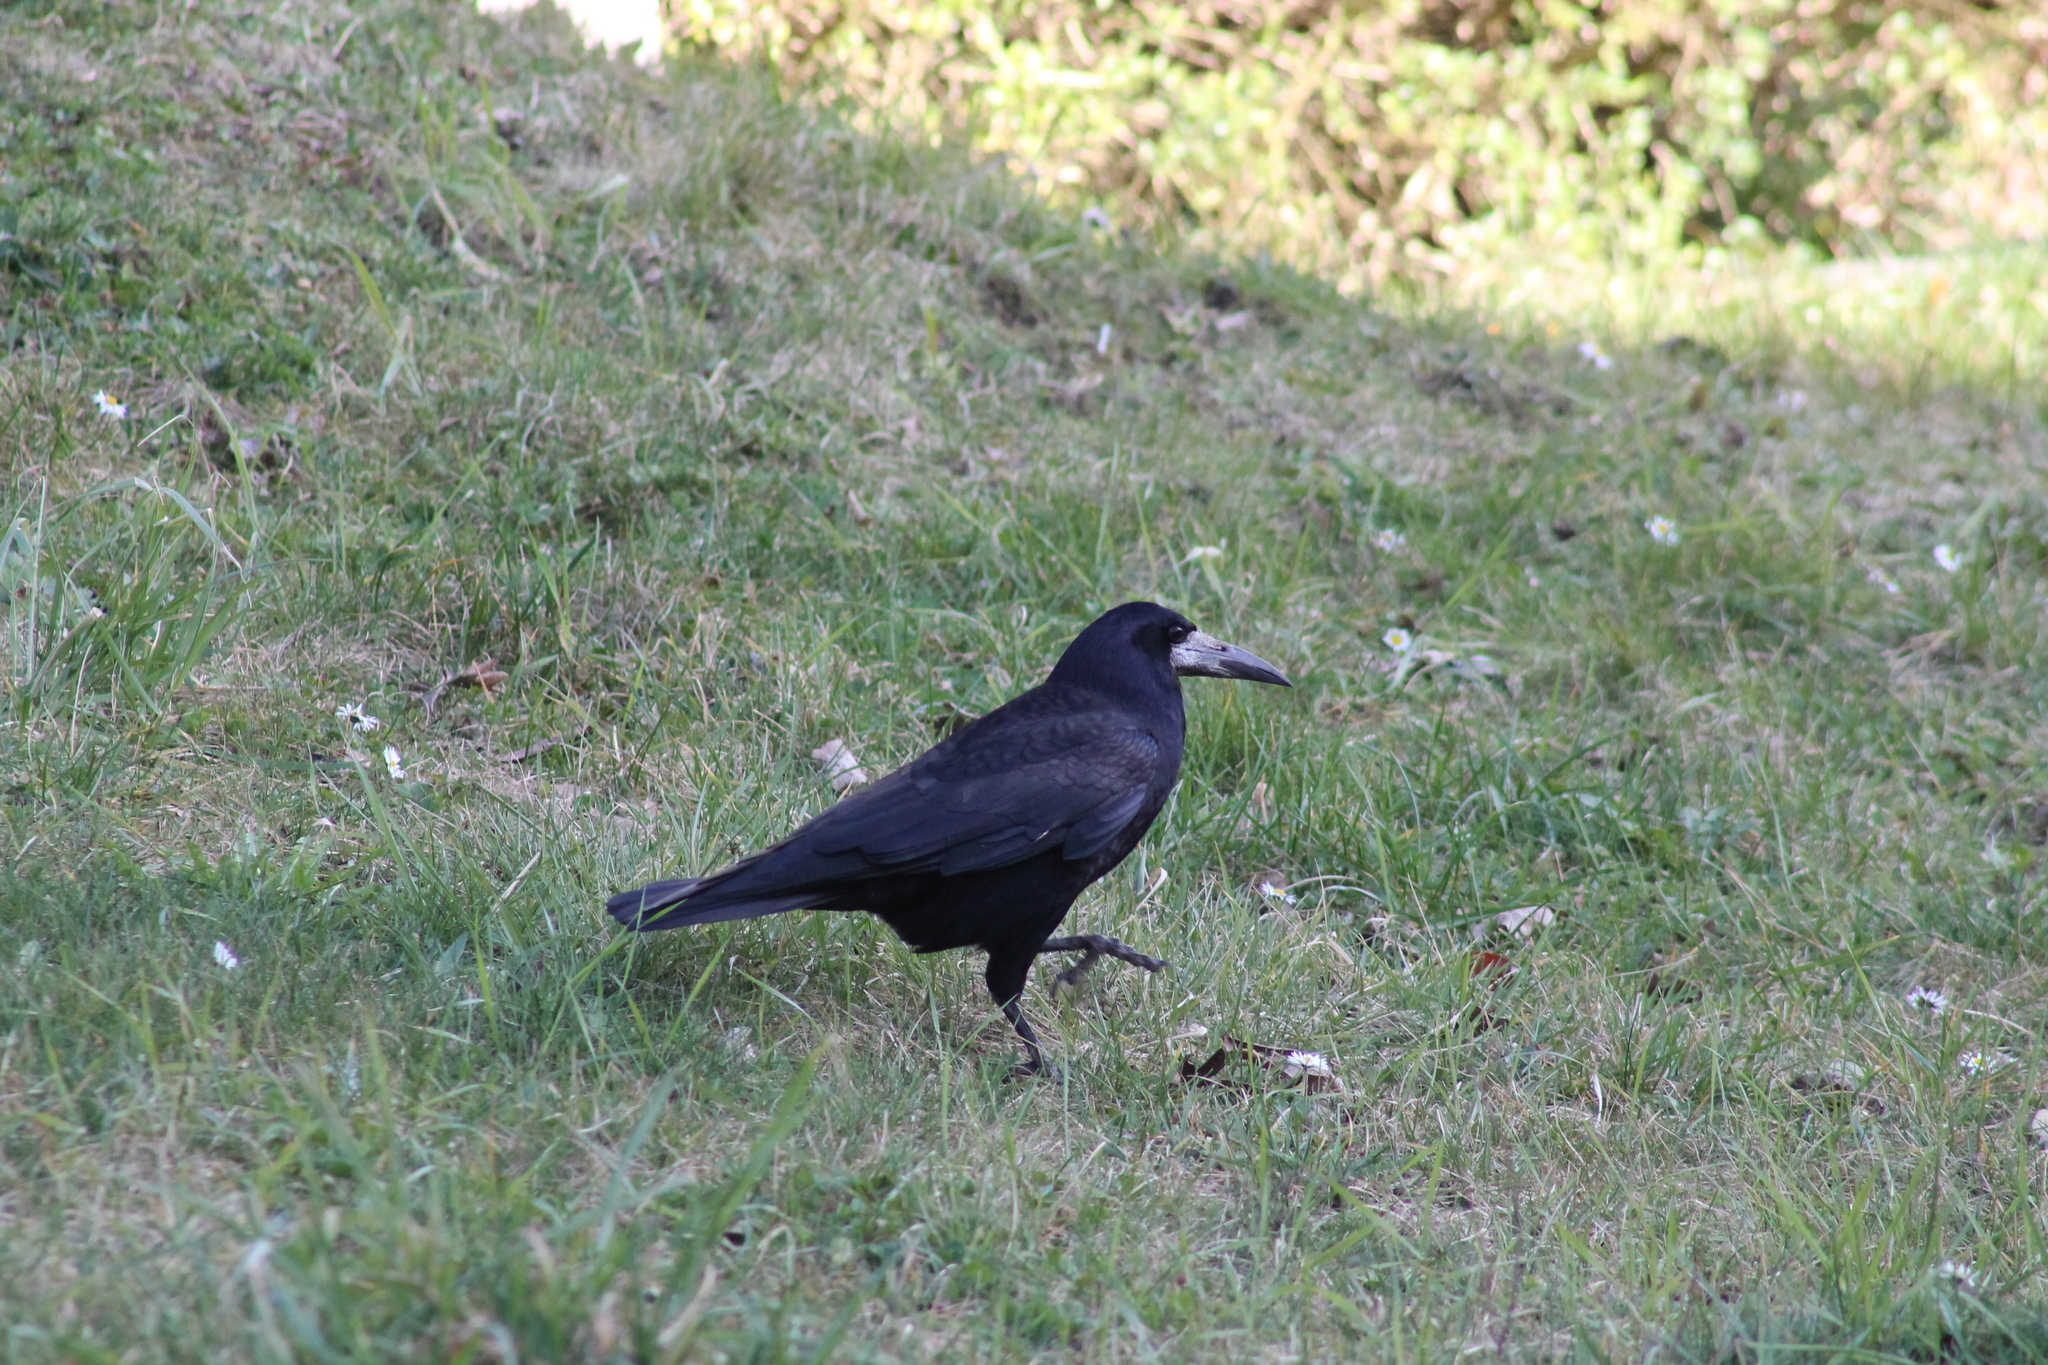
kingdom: Animalia
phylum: Chordata
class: Aves
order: Passeriformes
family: Corvidae
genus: Corvus
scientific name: Corvus frugilegus
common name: Rook
